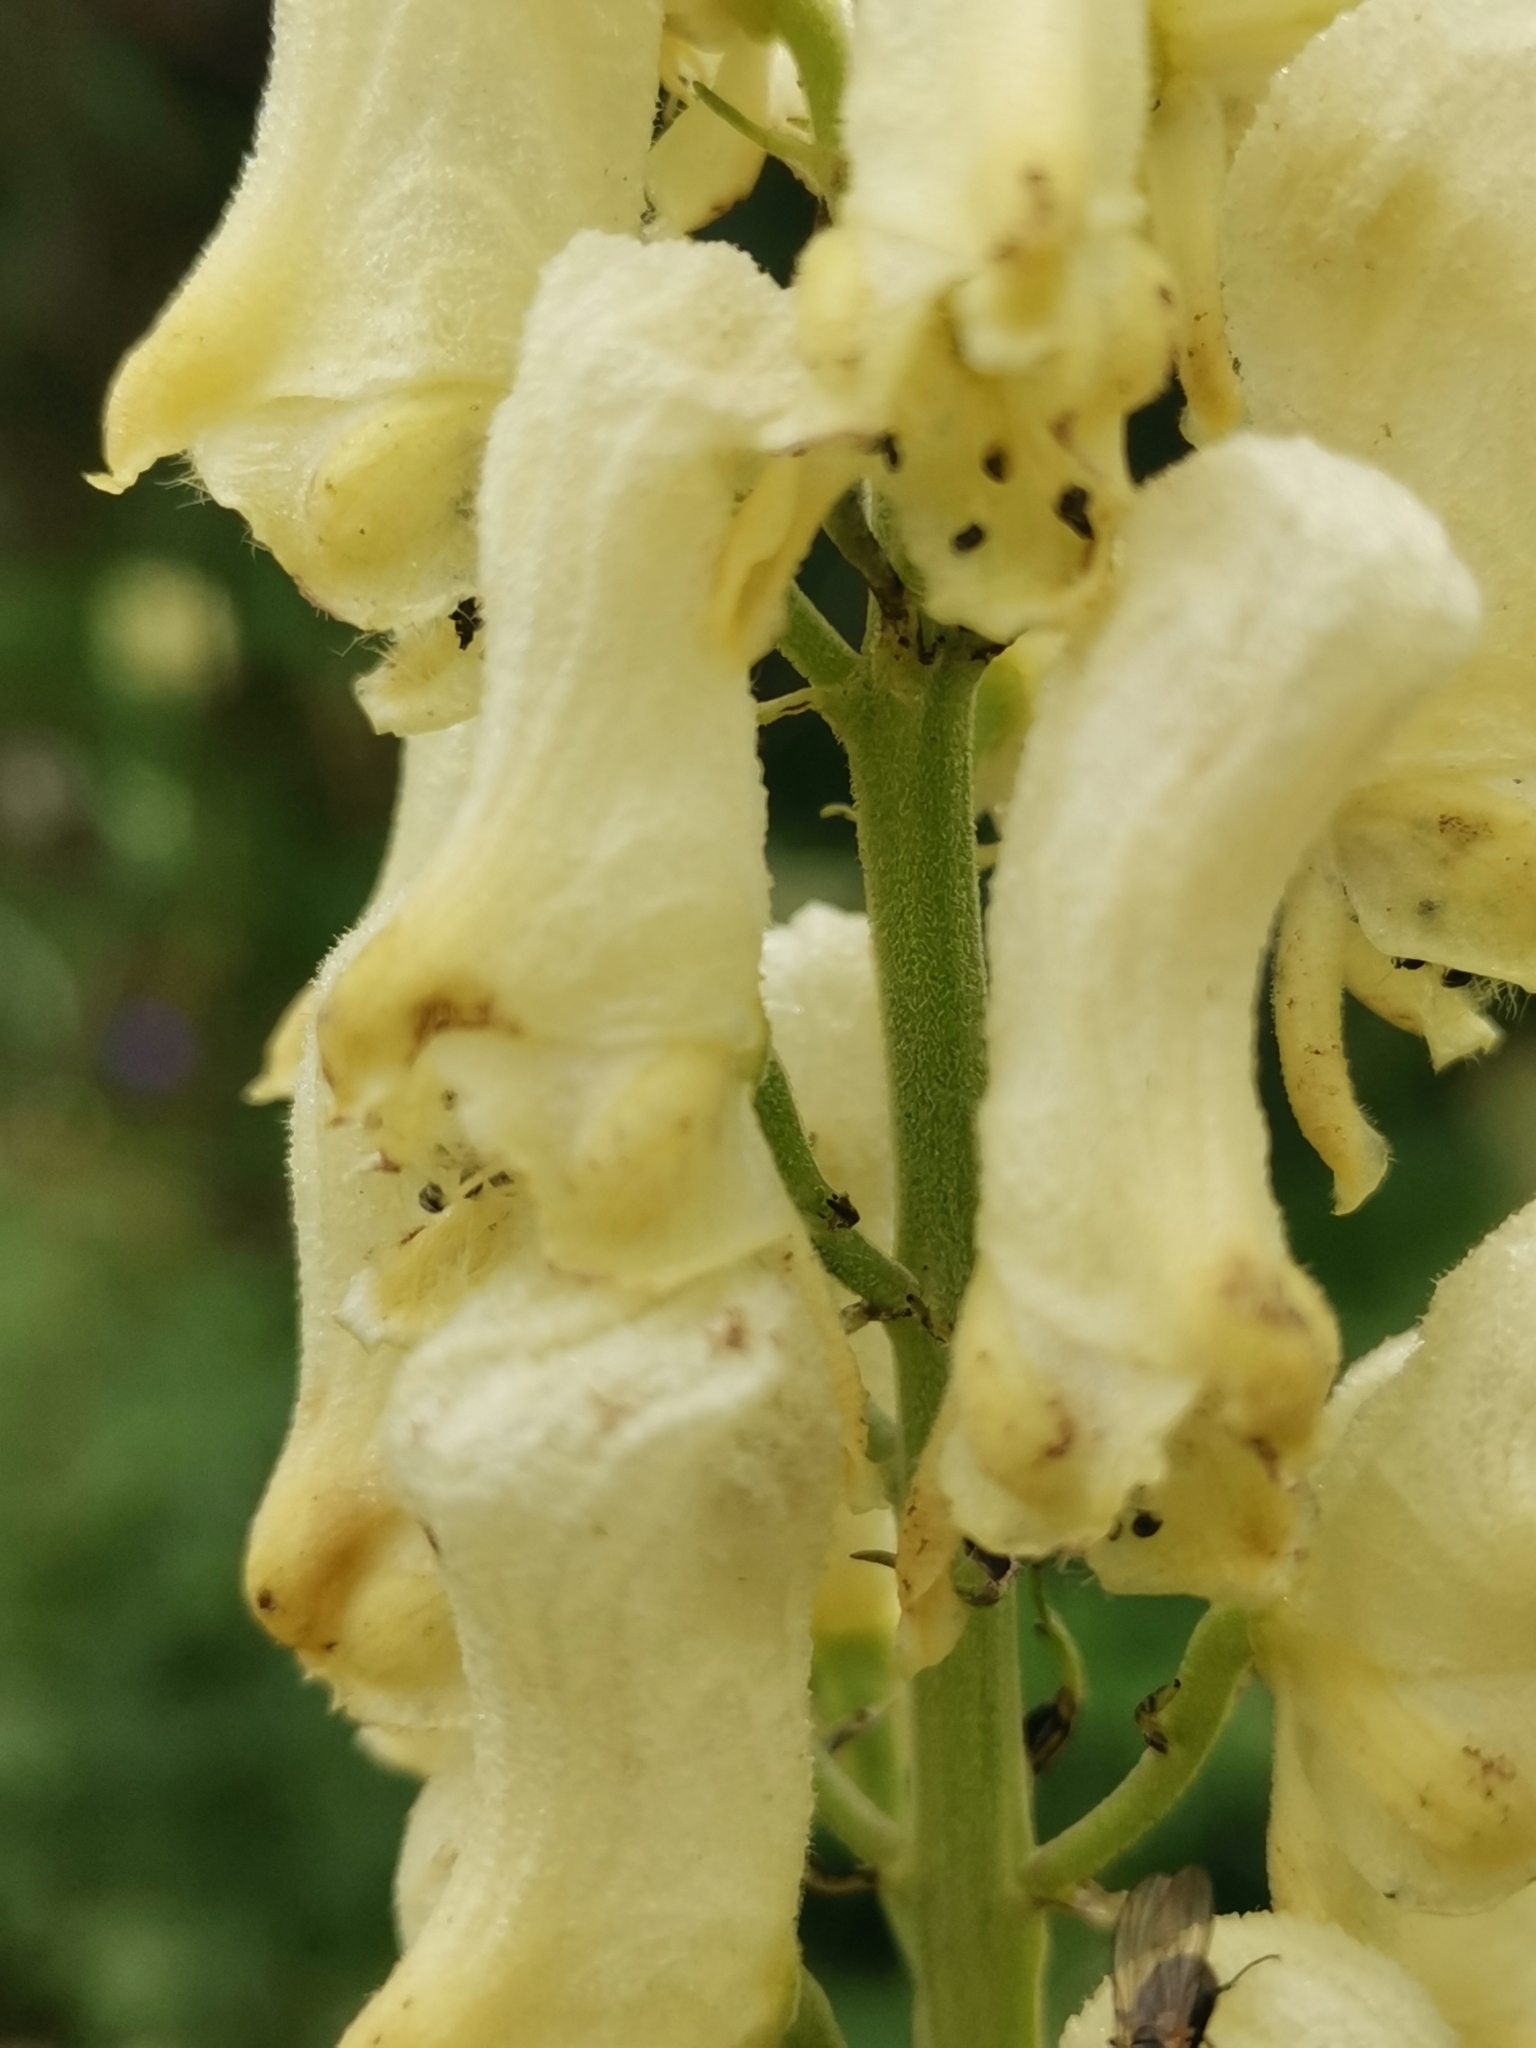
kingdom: Plantae
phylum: Tracheophyta
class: Magnoliopsida
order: Ranunculales
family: Ranunculaceae
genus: Aconitum
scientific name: Aconitum lamarckii
